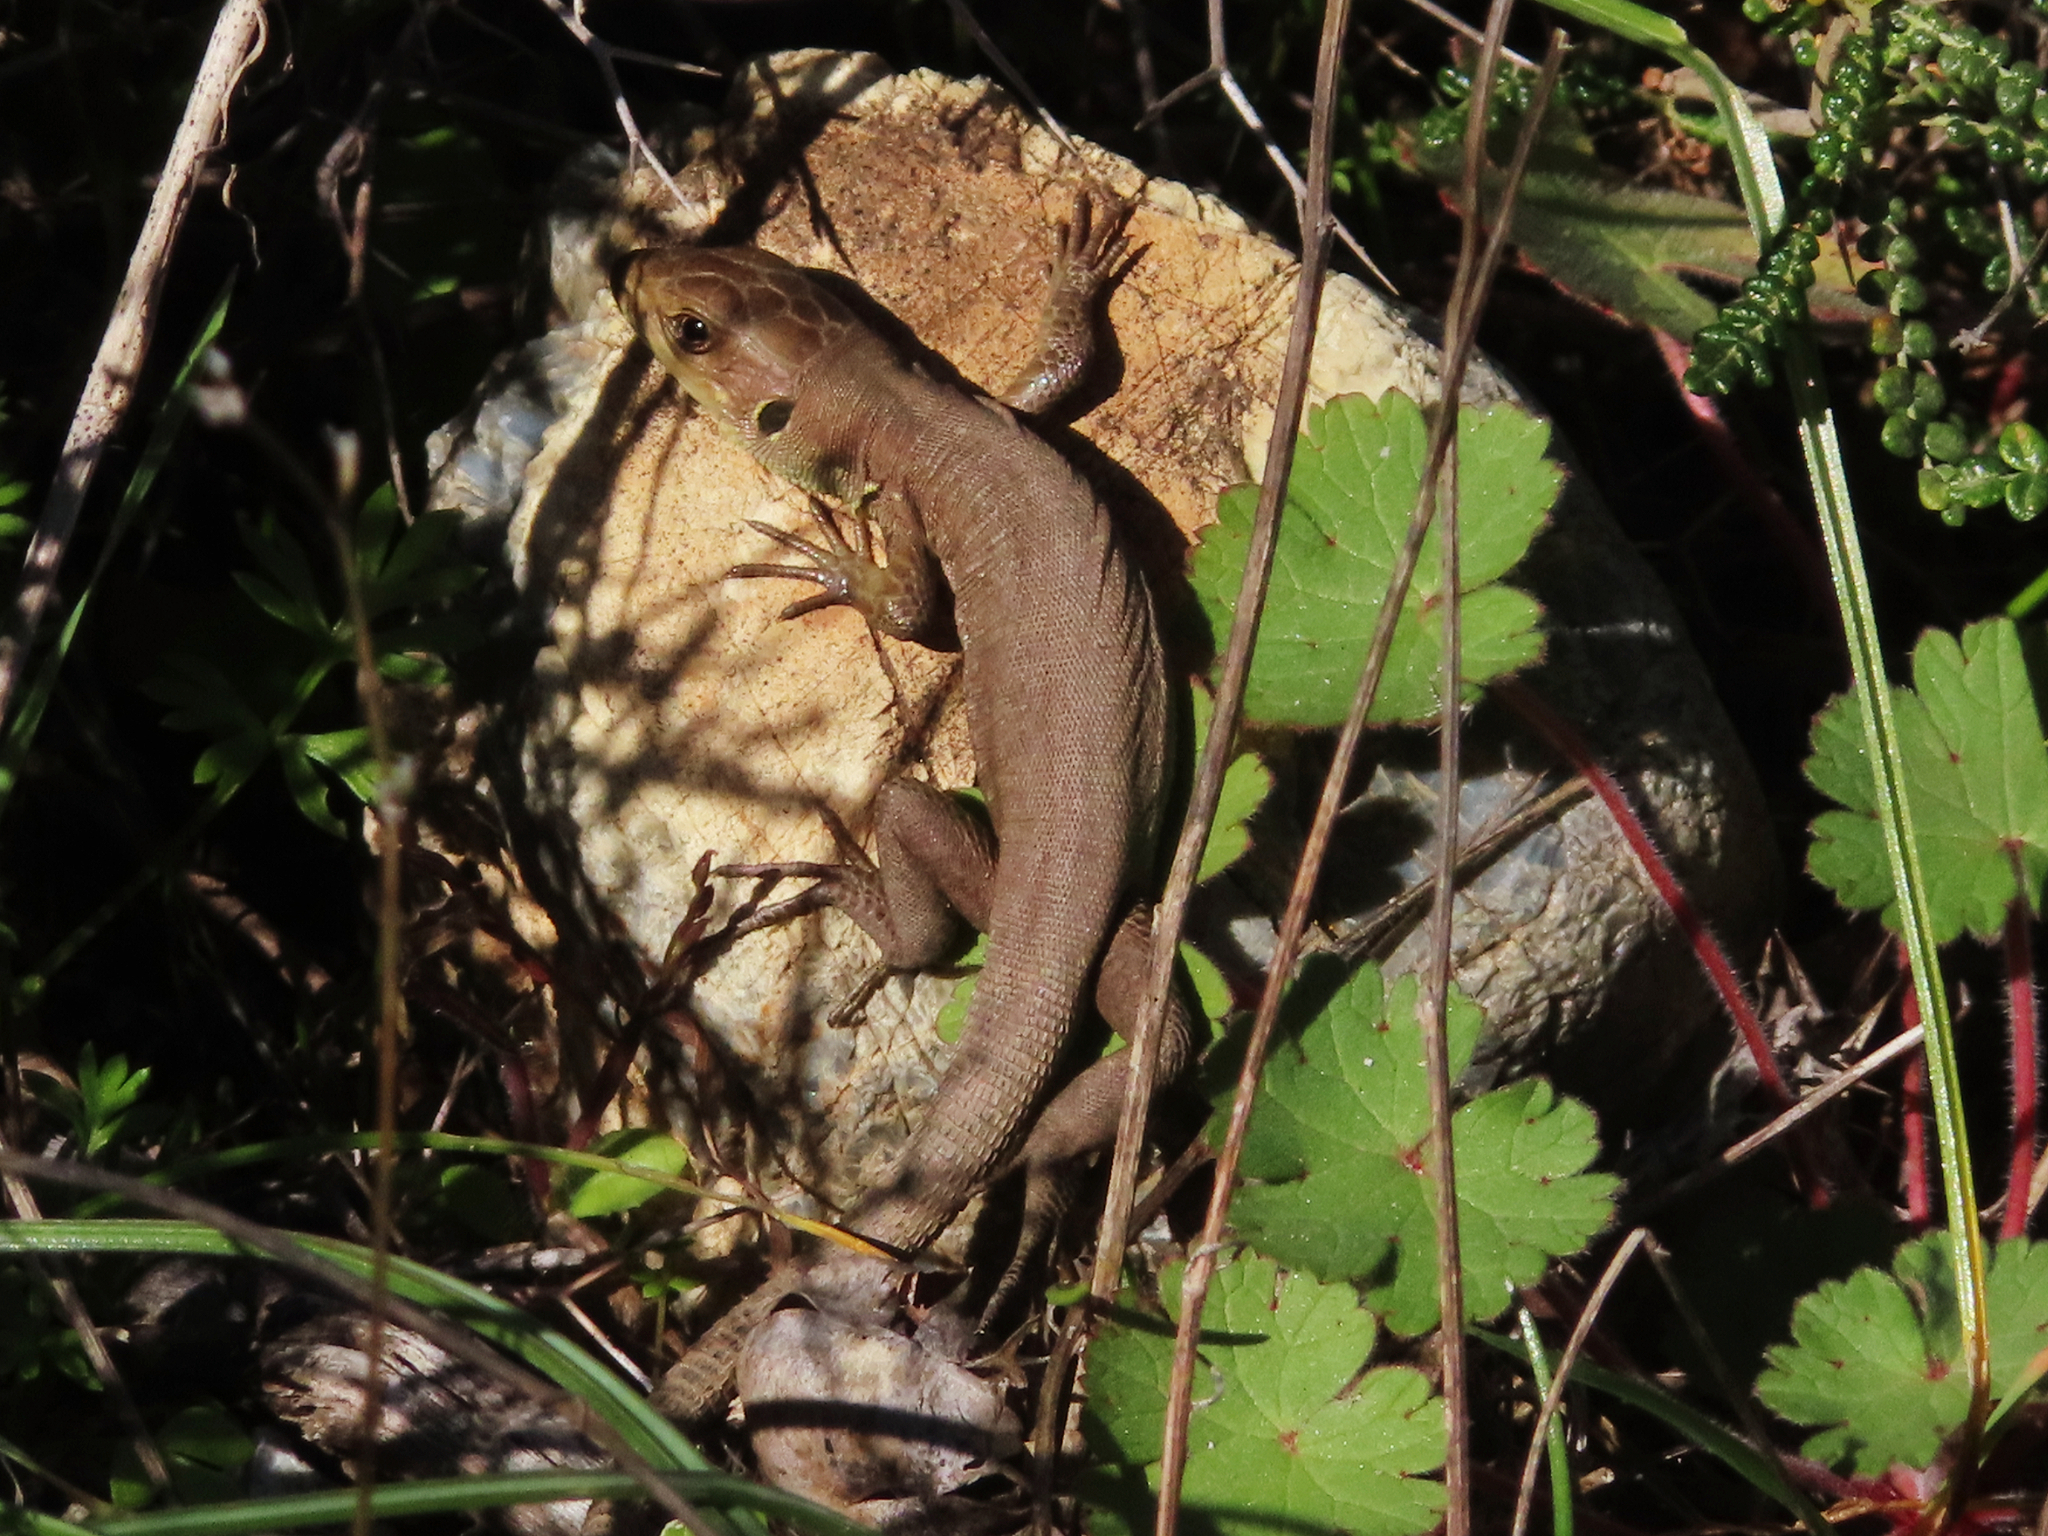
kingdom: Animalia
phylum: Chordata
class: Squamata
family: Lacertidae
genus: Lacerta
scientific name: Lacerta trilineata
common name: Balkan green lizard
